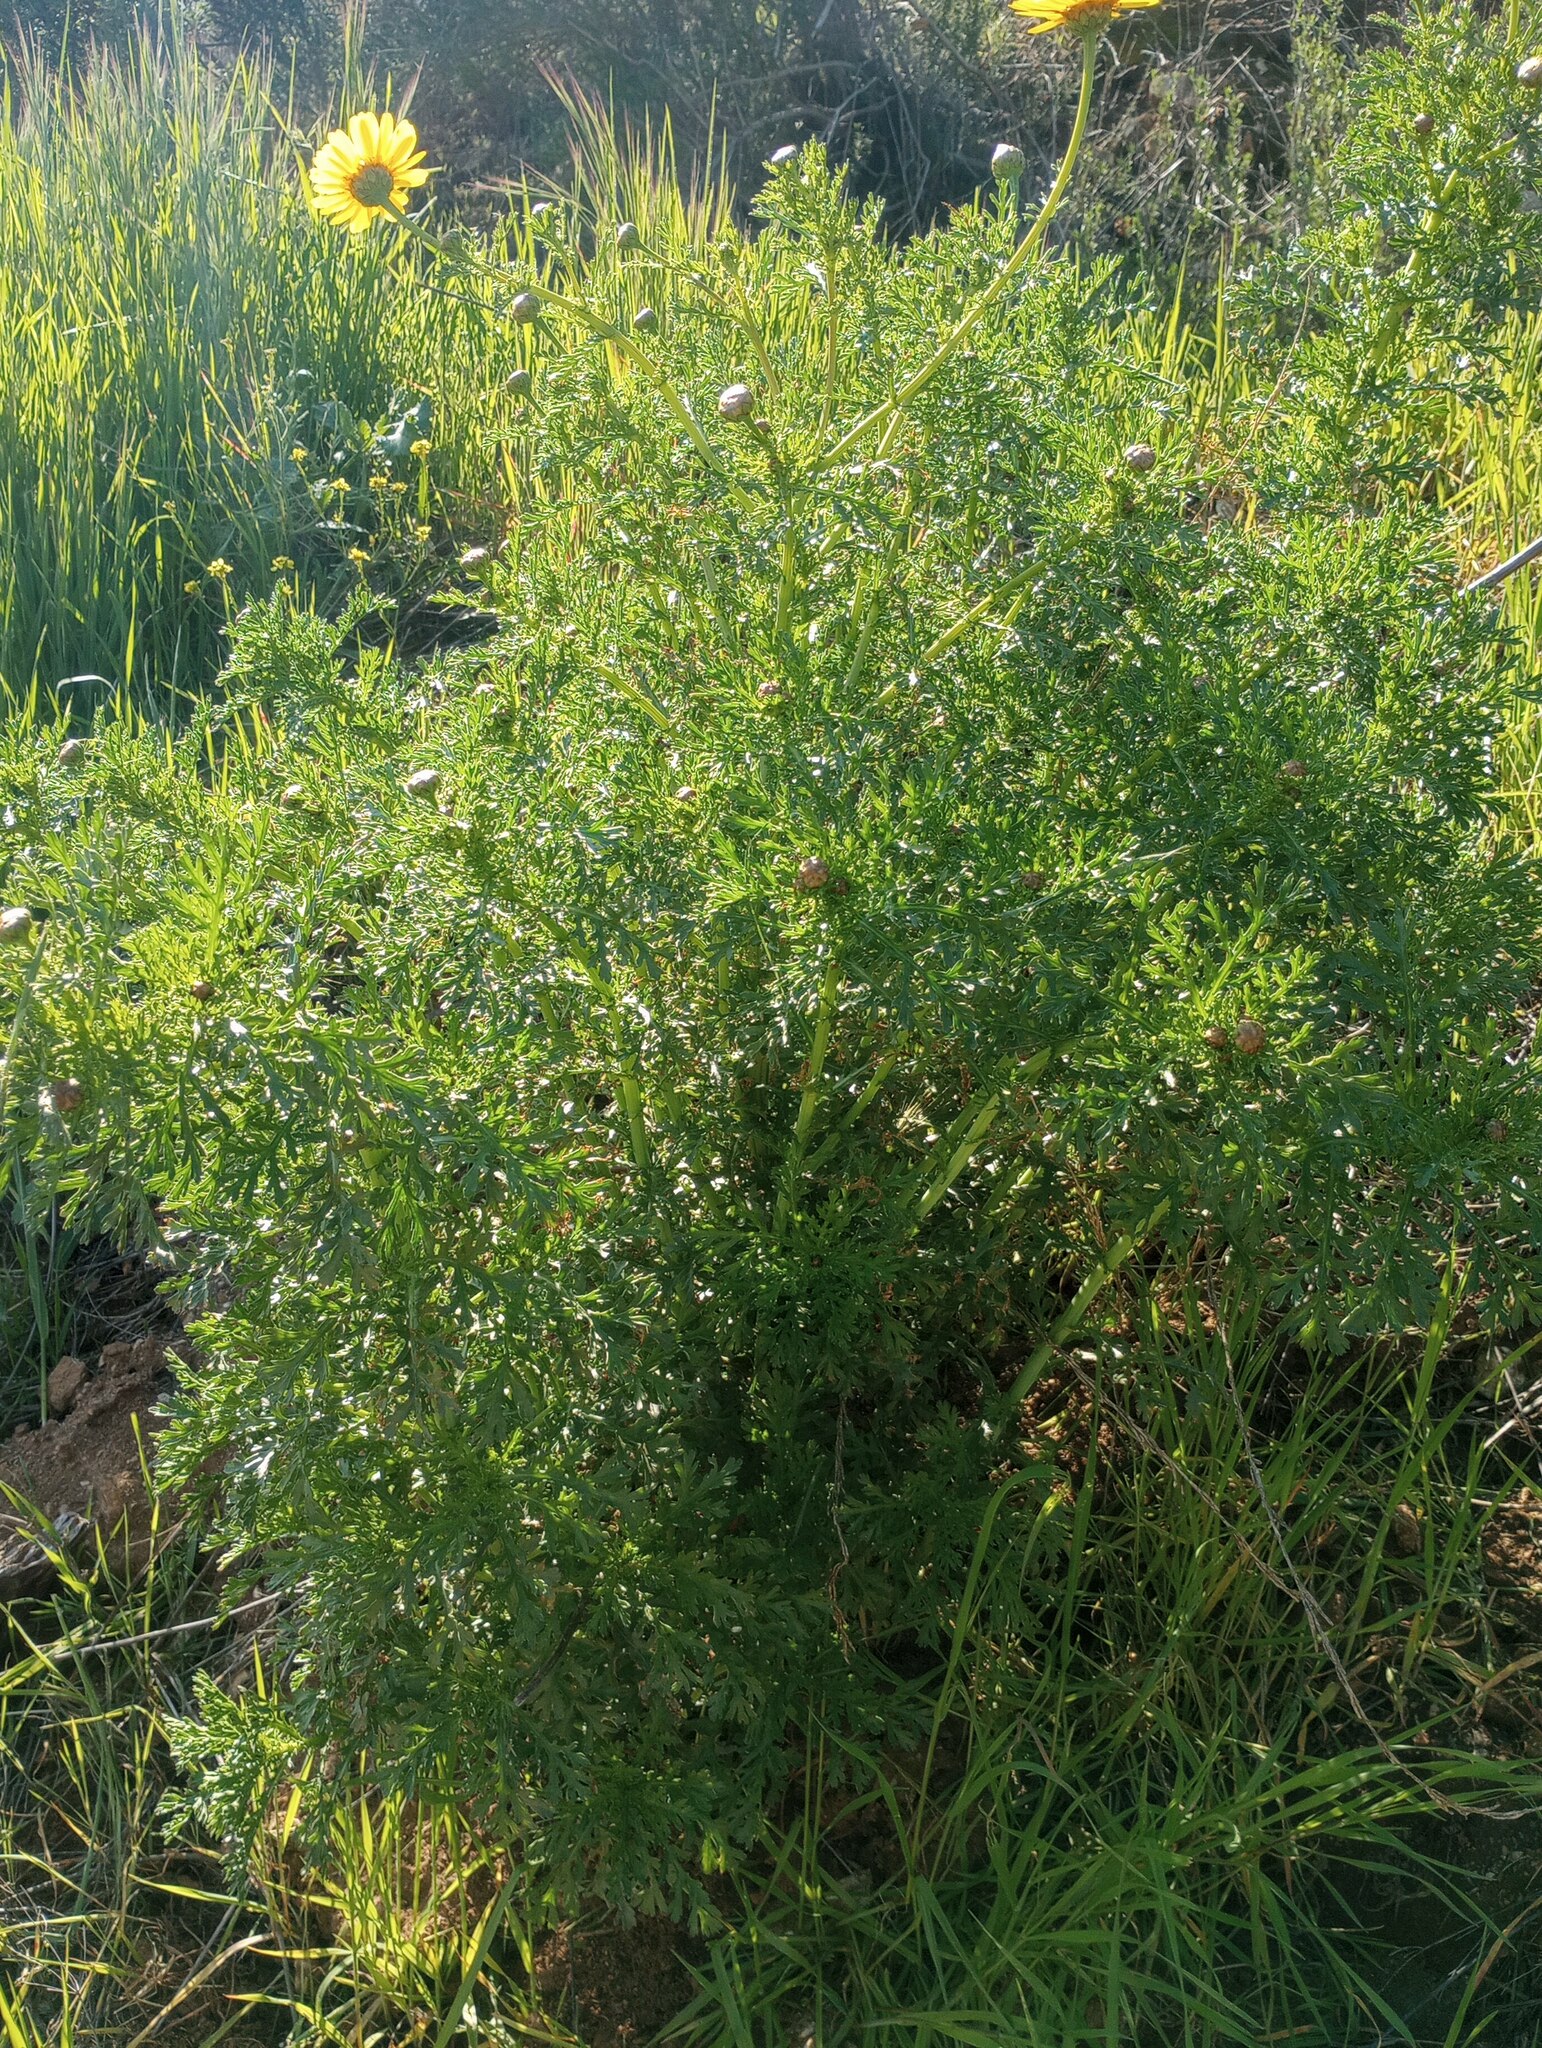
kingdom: Plantae
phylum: Tracheophyta
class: Magnoliopsida
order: Asterales
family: Asteraceae
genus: Glebionis
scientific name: Glebionis coronaria
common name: Crowndaisy
